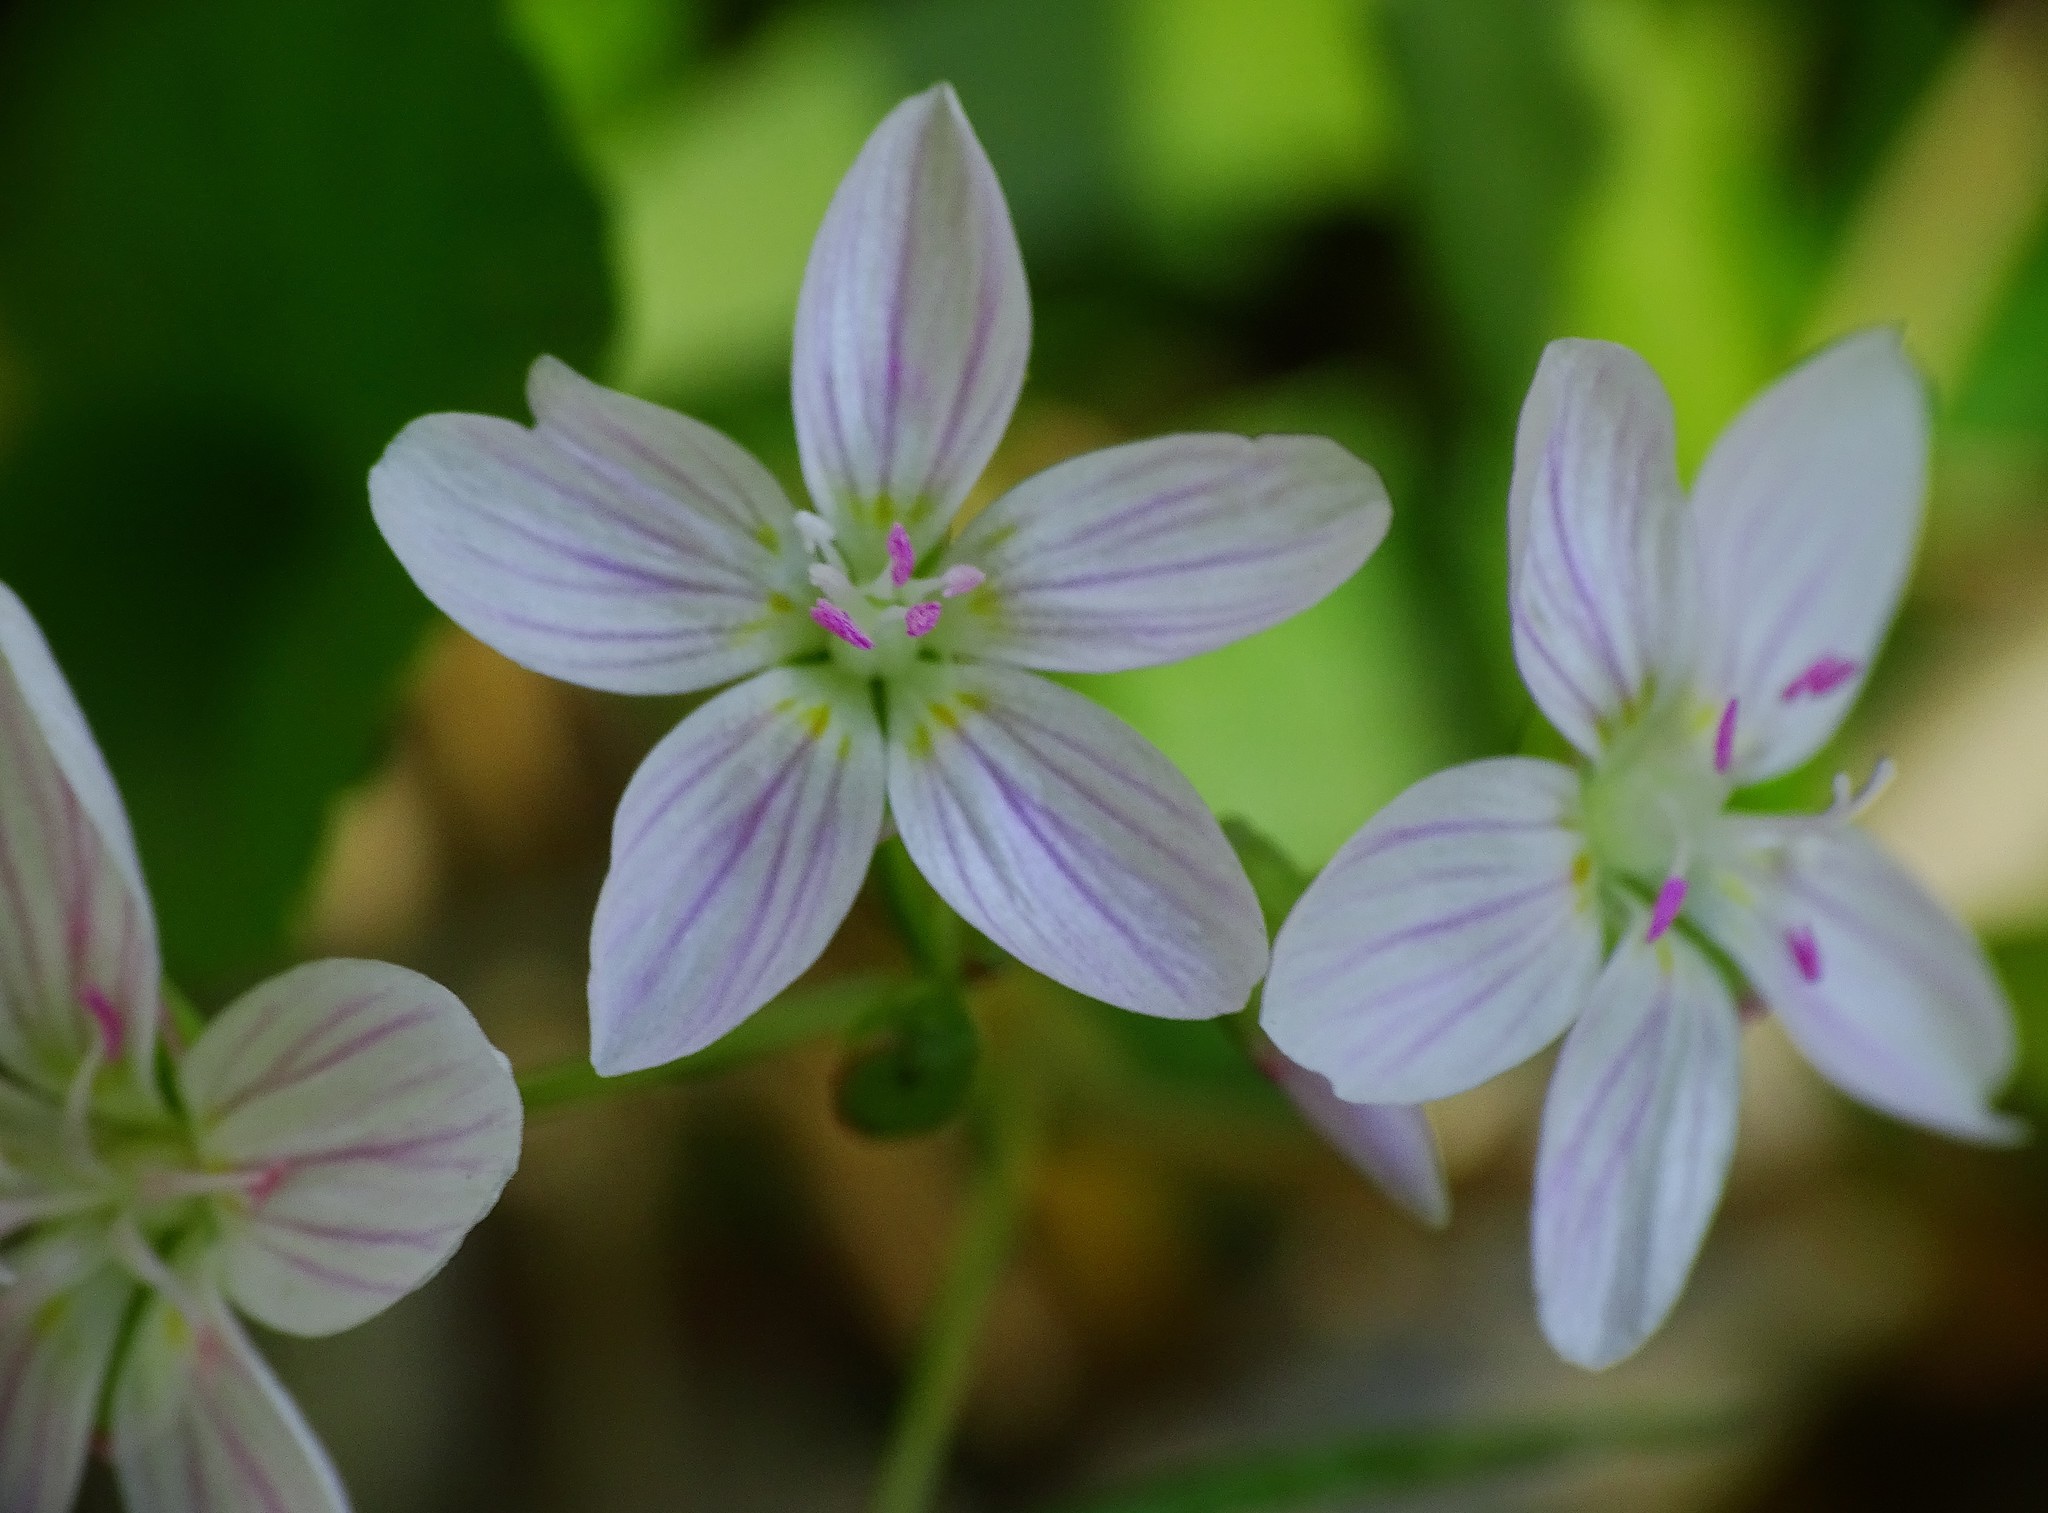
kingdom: Plantae
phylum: Tracheophyta
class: Magnoliopsida
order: Caryophyllales
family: Montiaceae
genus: Claytonia
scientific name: Claytonia virginica
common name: Virginia springbeauty
